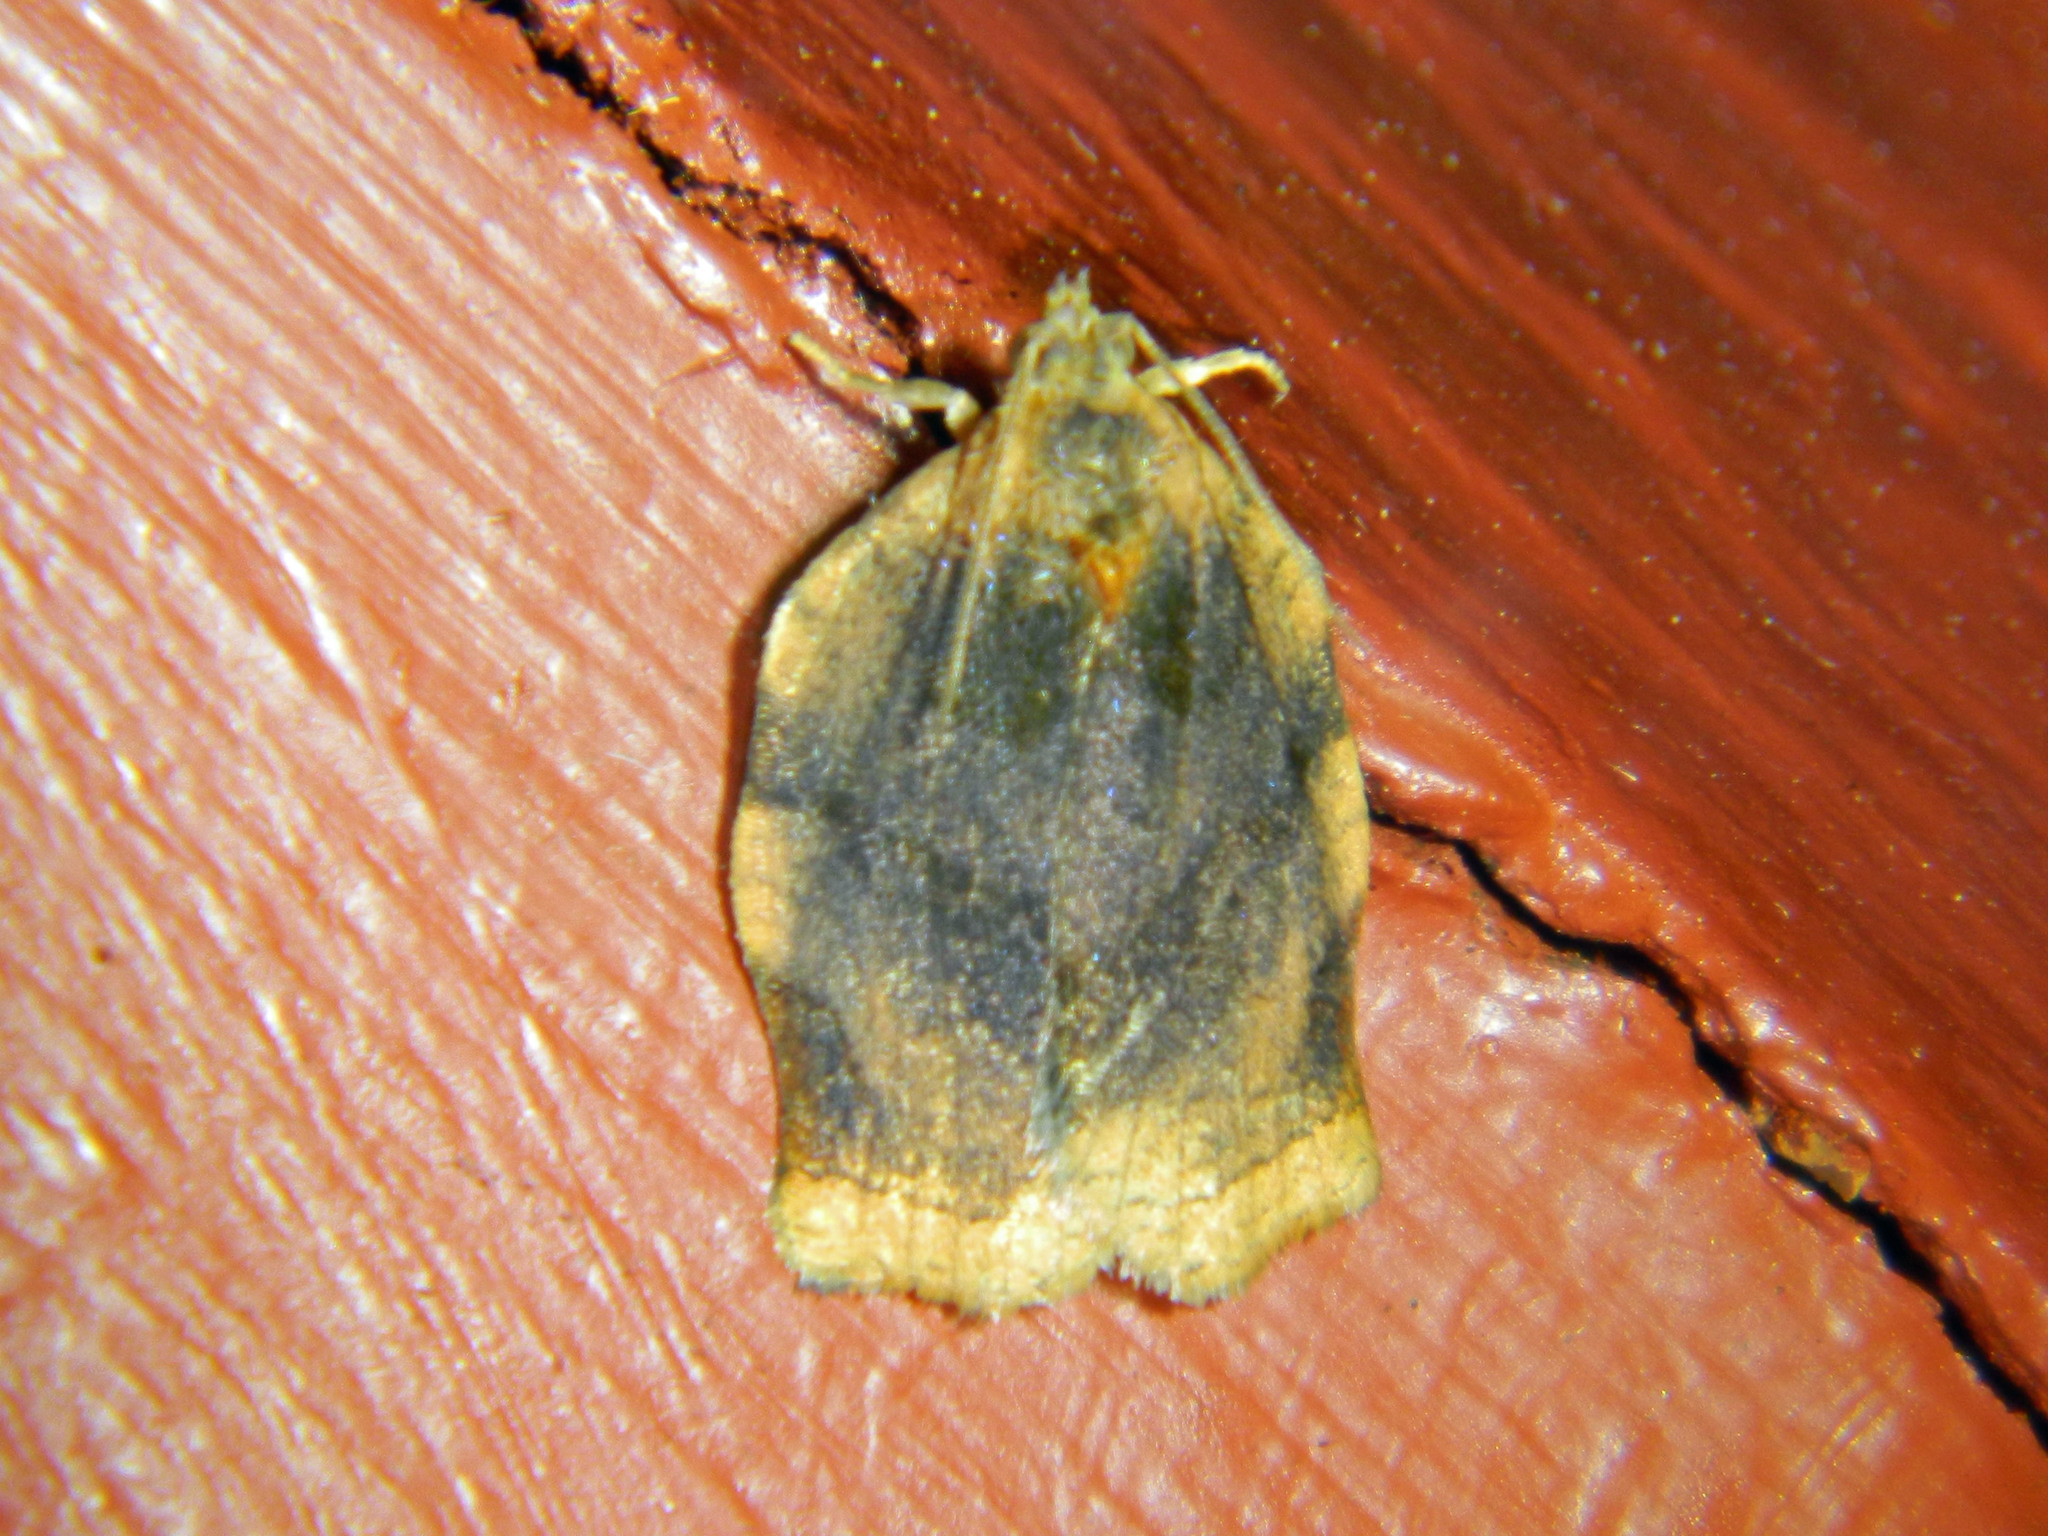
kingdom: Animalia
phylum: Arthropoda
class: Insecta
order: Lepidoptera
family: Tortricidae
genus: Archips
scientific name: Archips purpurana
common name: Omnivorous leafroller
